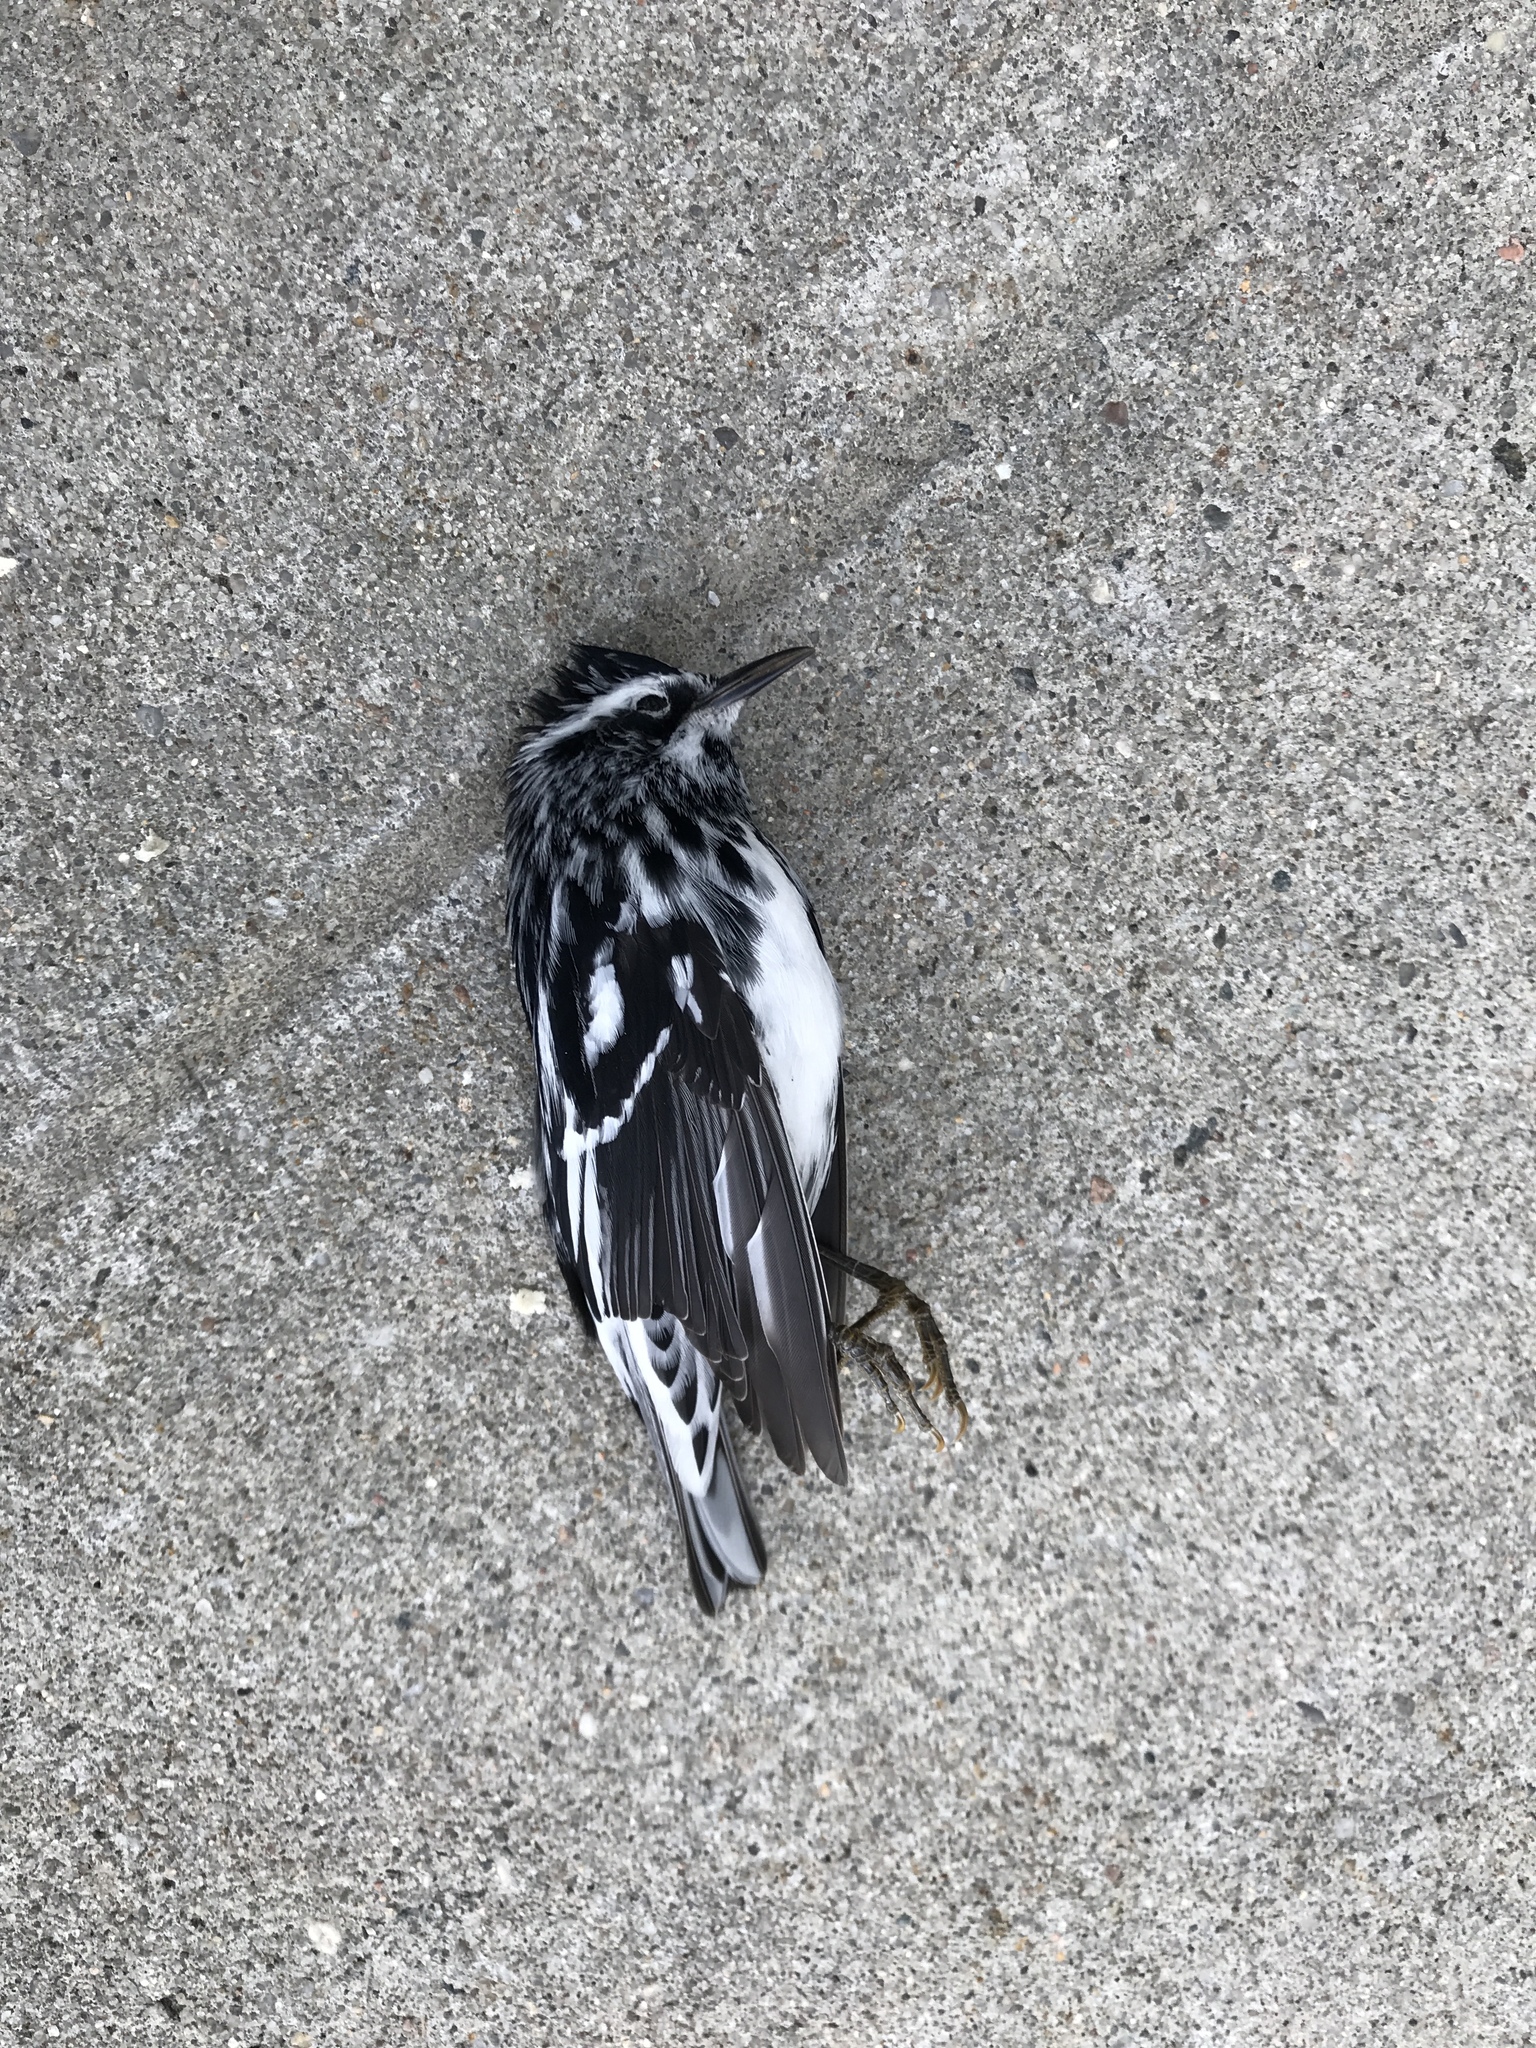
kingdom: Animalia
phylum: Chordata
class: Aves
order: Passeriformes
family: Parulidae
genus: Mniotilta
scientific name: Mniotilta varia
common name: Black-and-white warbler
